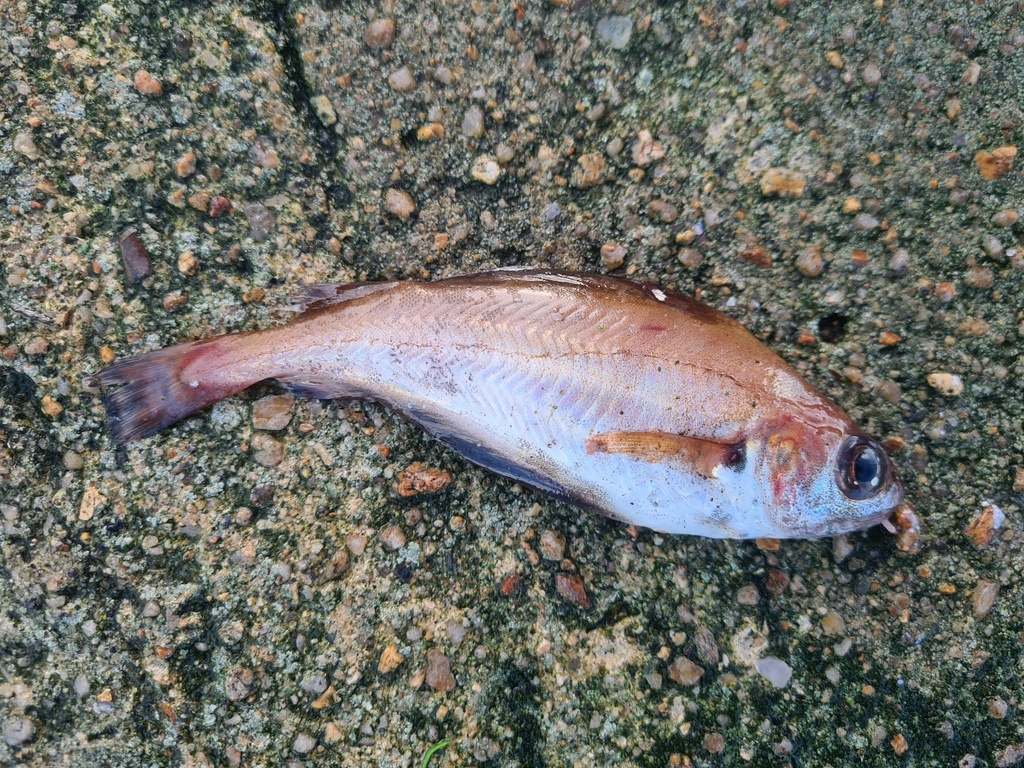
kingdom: Animalia
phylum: Chordata
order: Gadiformes
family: Gadidae
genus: Trisopterus
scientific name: Trisopterus luscus
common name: Bib
